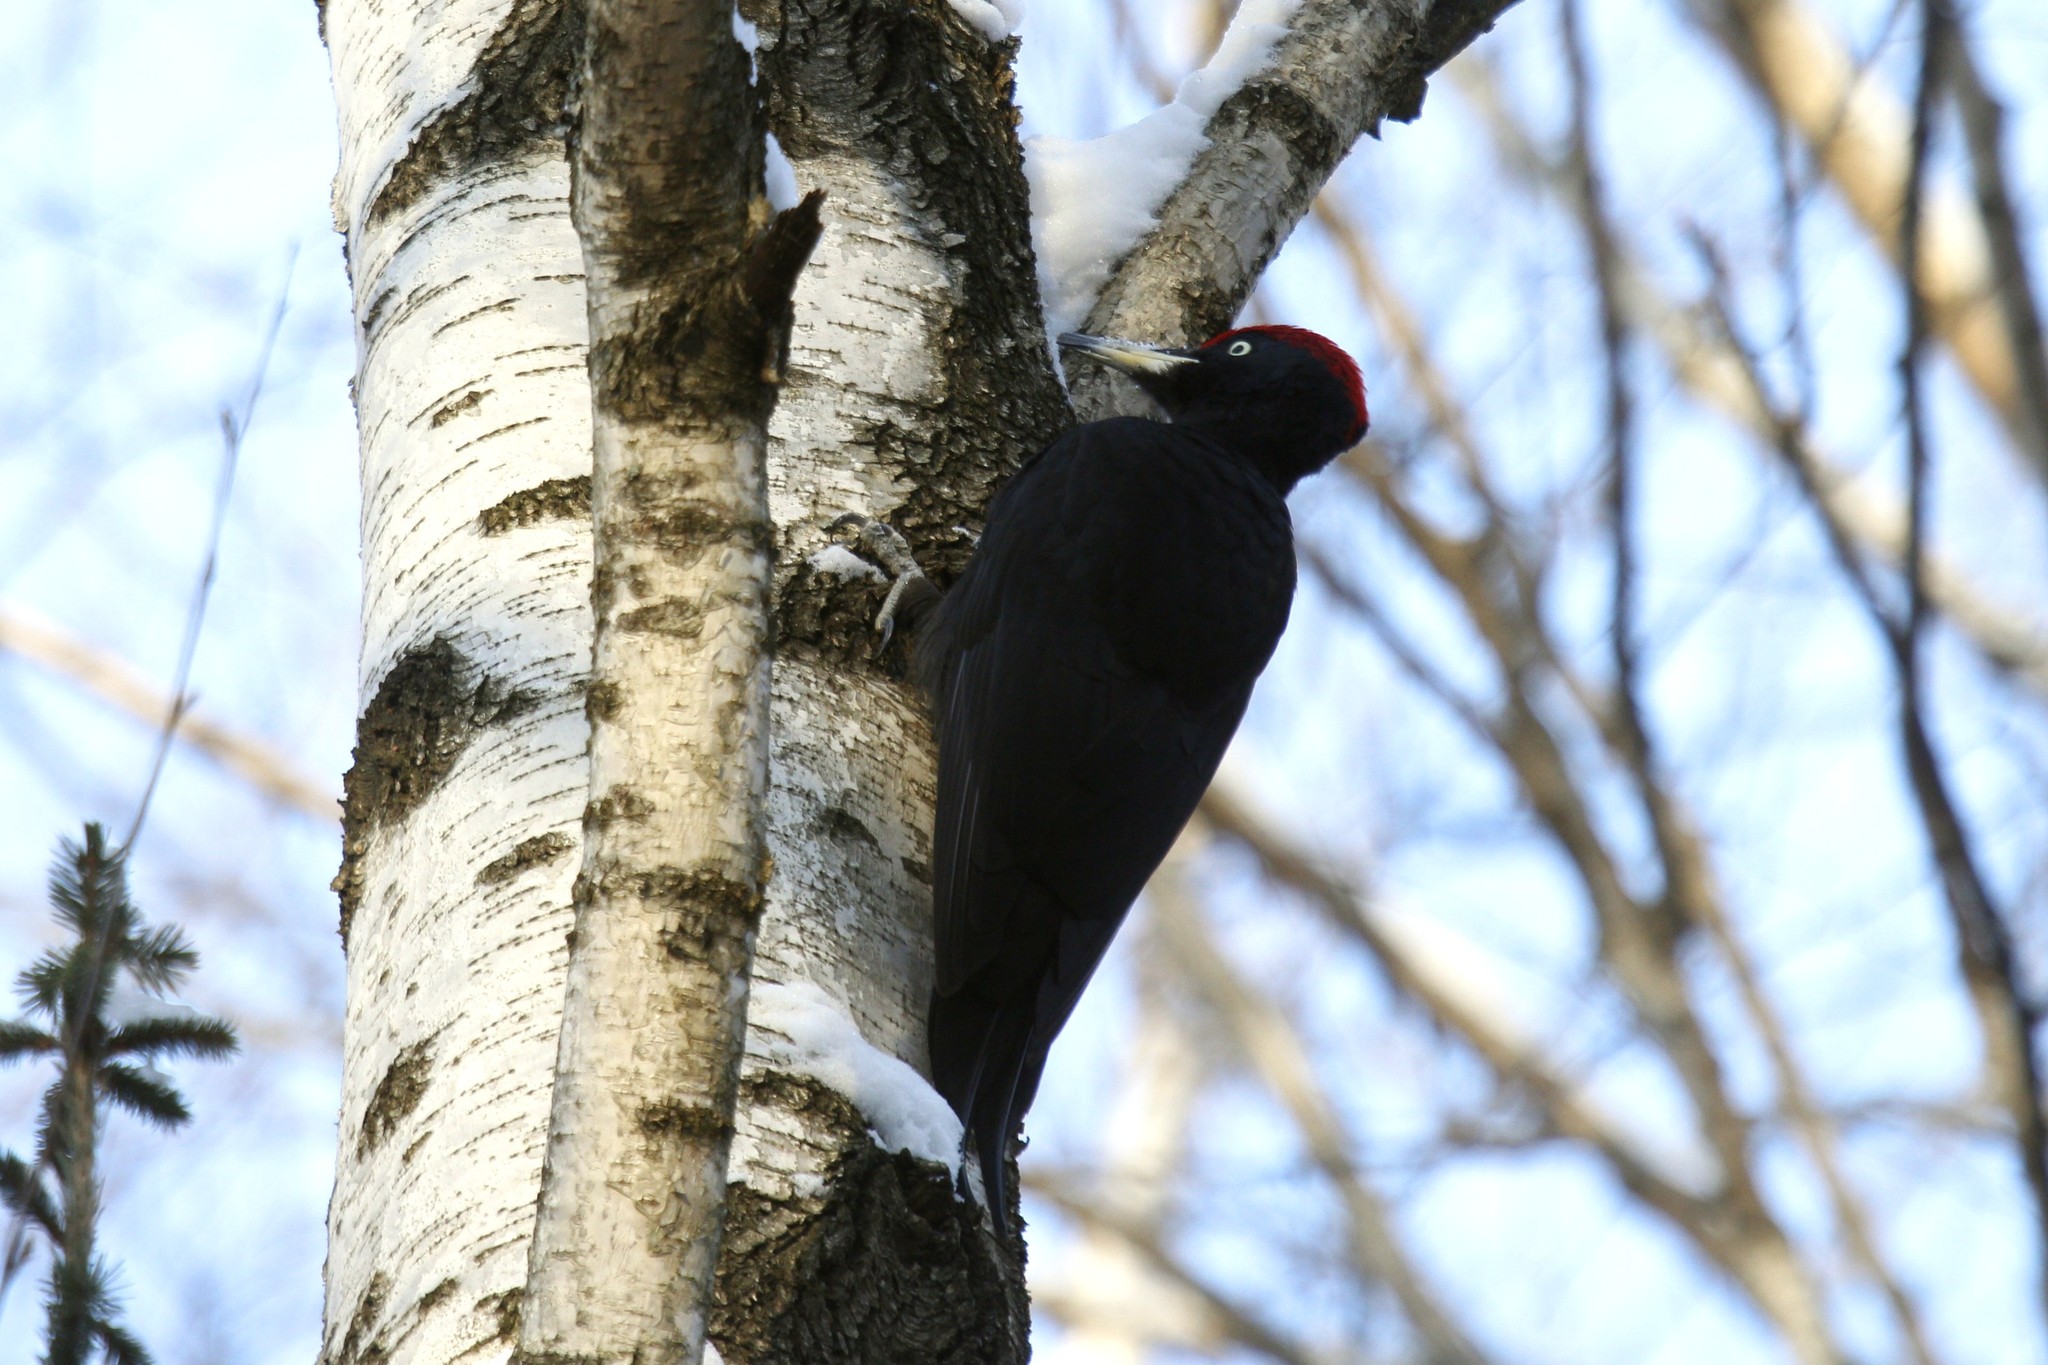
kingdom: Animalia
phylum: Chordata
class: Aves
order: Piciformes
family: Picidae
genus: Dryocopus
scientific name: Dryocopus martius
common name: Black woodpecker
